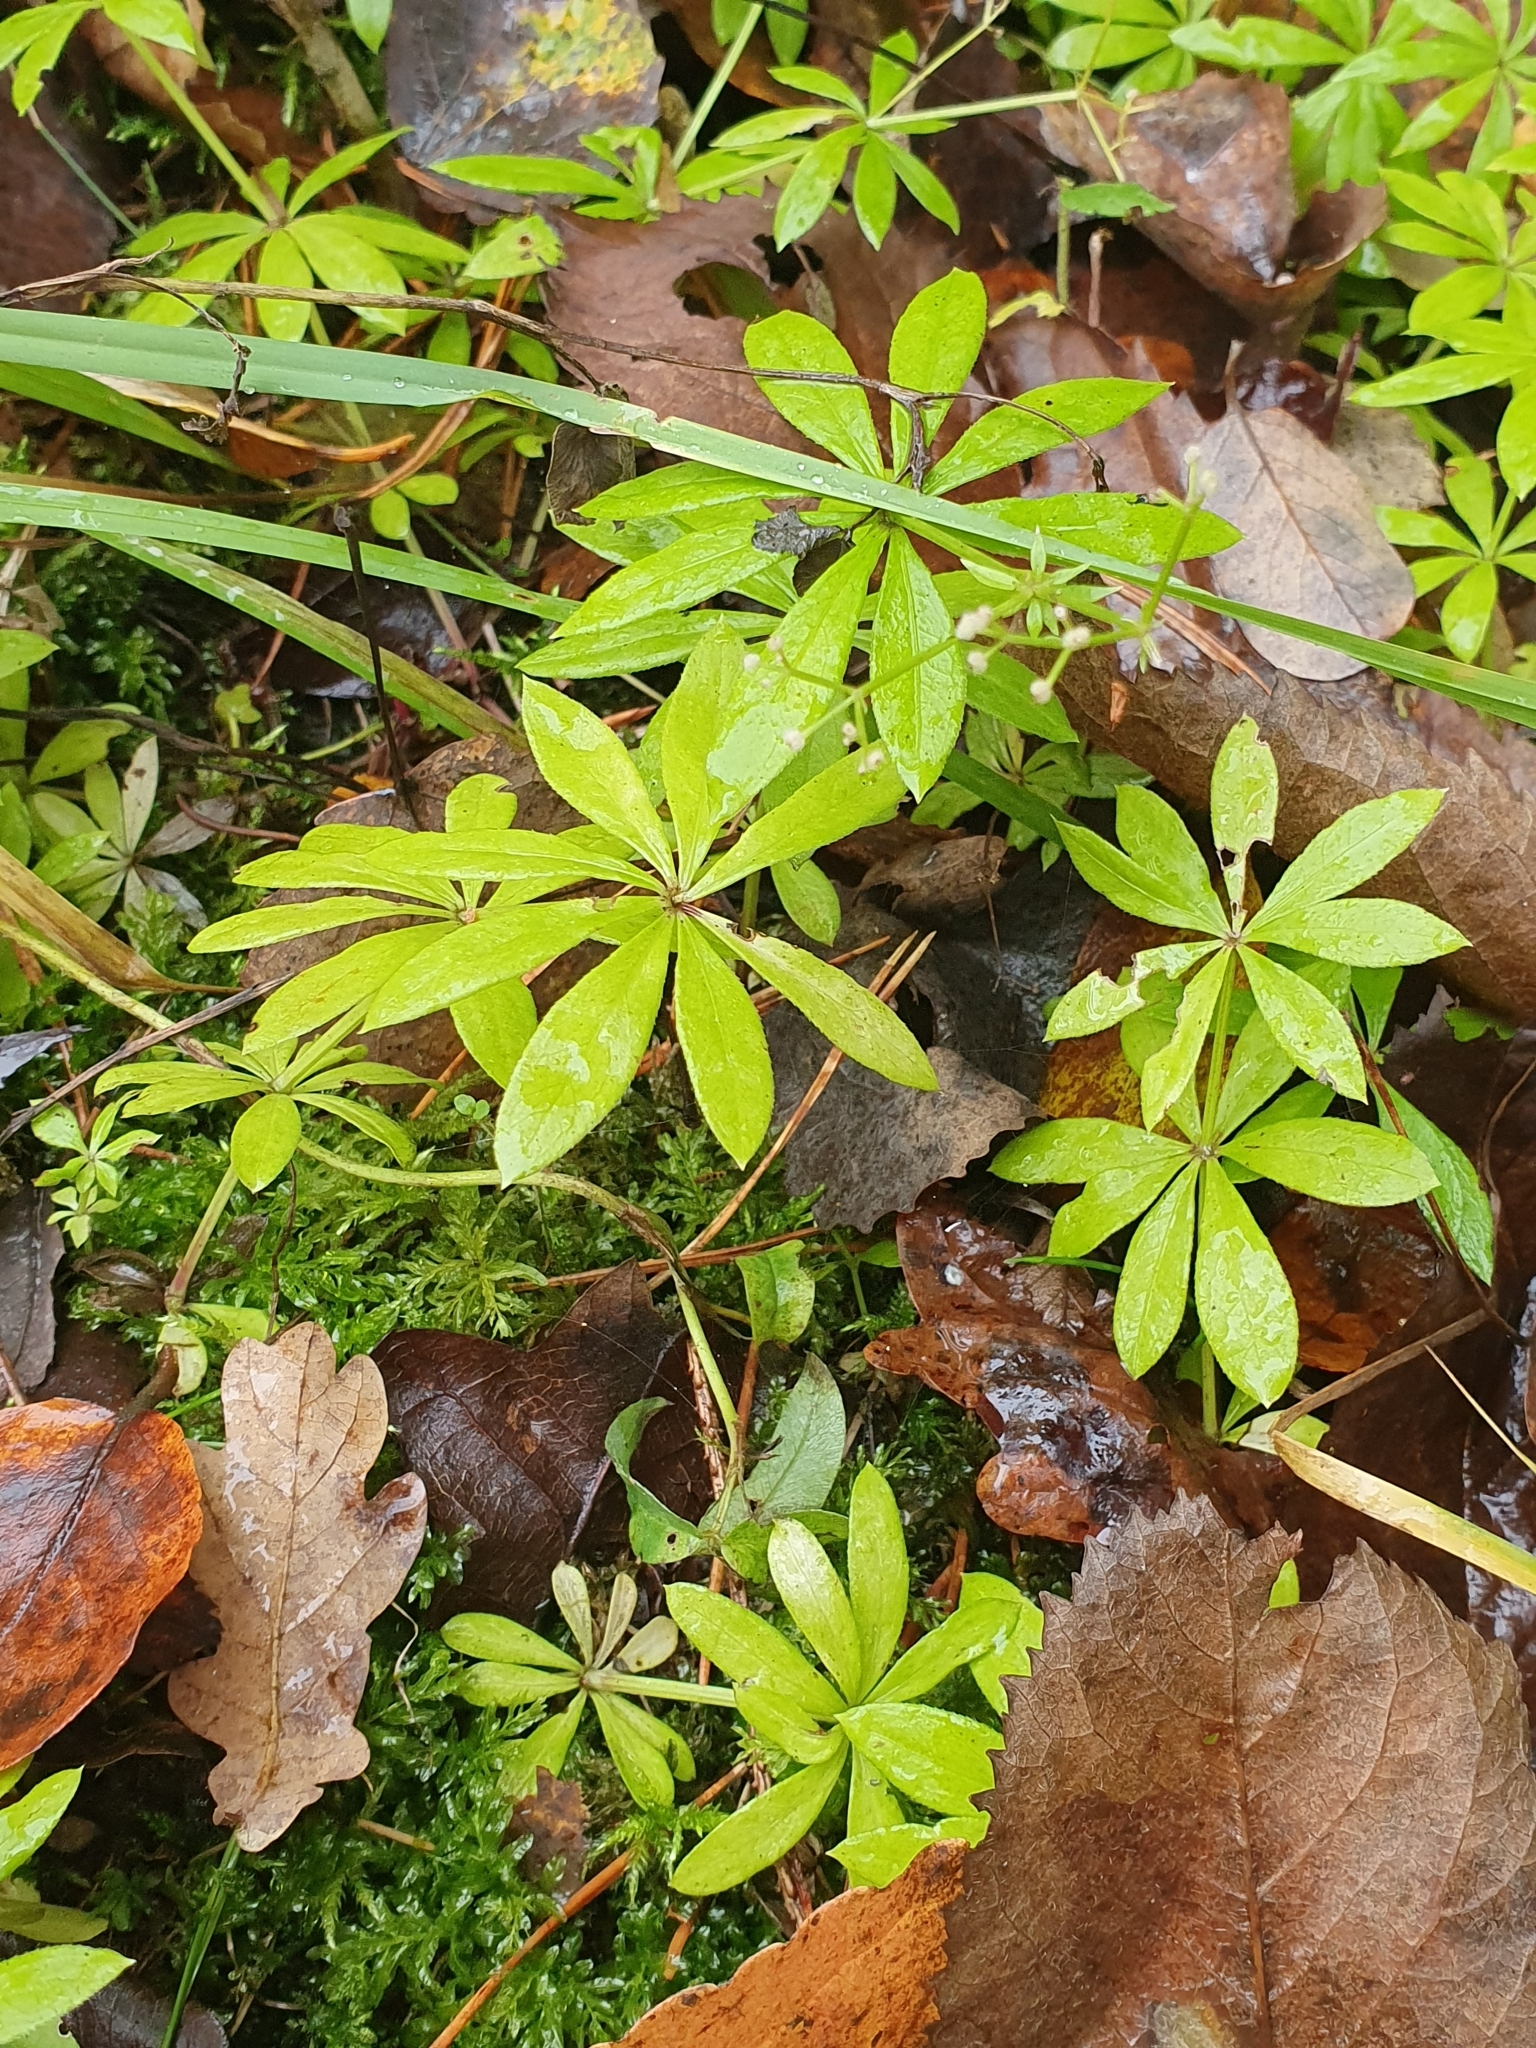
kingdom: Plantae
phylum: Tracheophyta
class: Magnoliopsida
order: Gentianales
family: Rubiaceae
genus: Galium
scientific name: Galium odoratum
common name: Sweet woodruff
